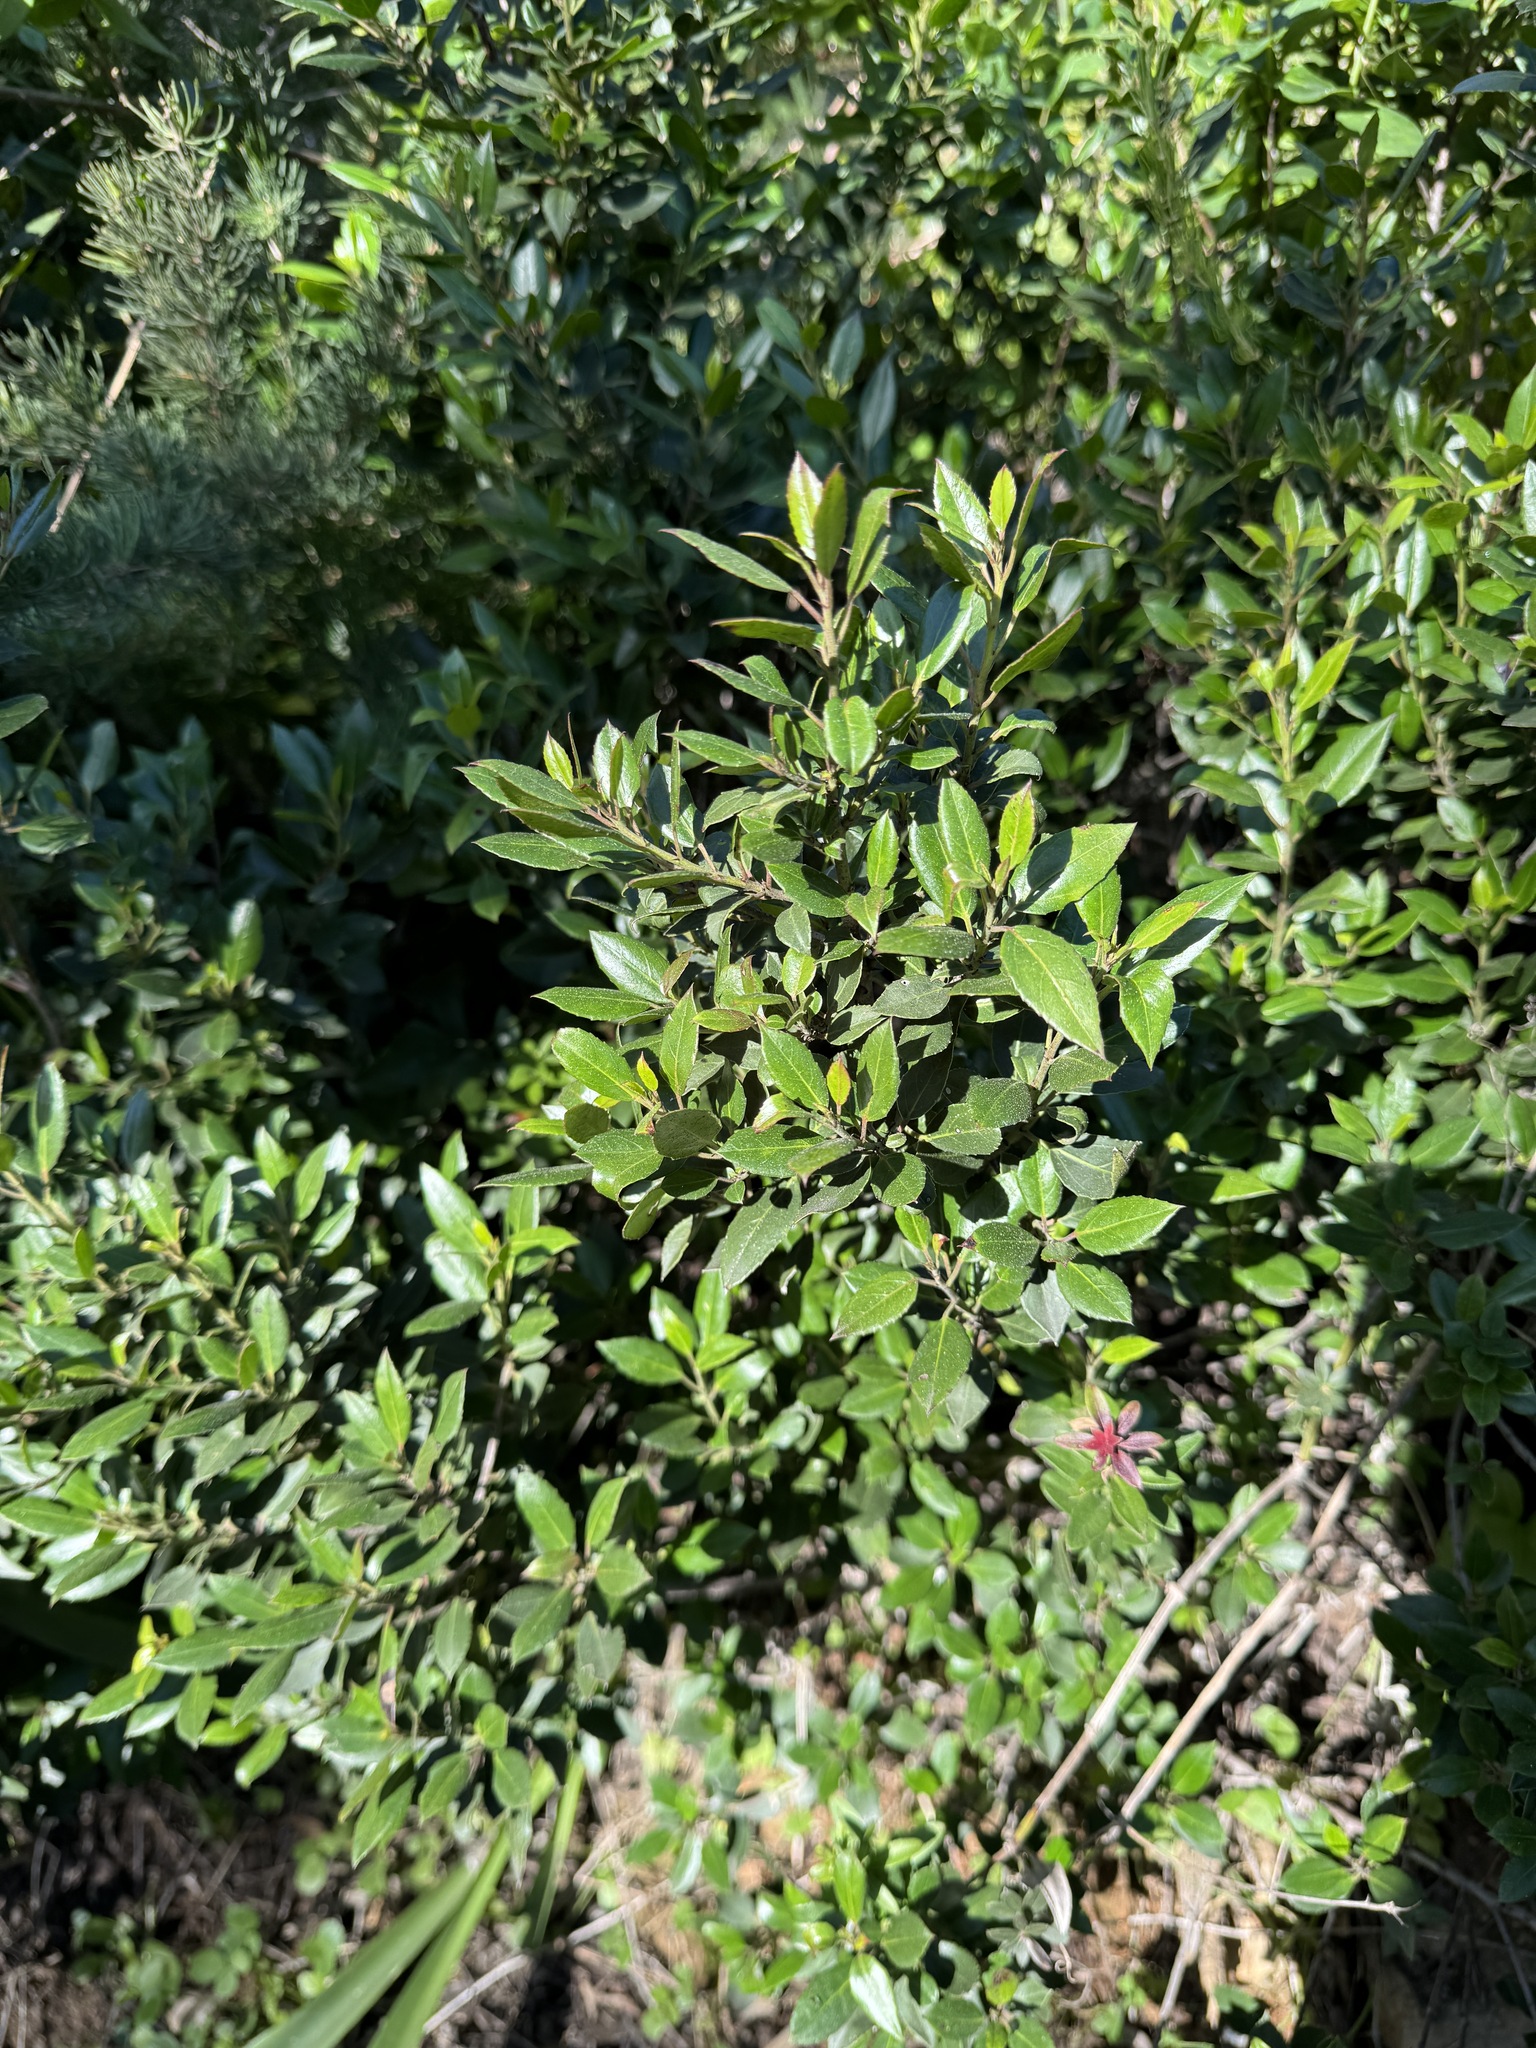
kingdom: Plantae
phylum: Tracheophyta
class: Magnoliopsida
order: Rosales
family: Rhamnaceae
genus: Rhamnus
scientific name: Rhamnus alaternus
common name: Mediterranean buckthorn
